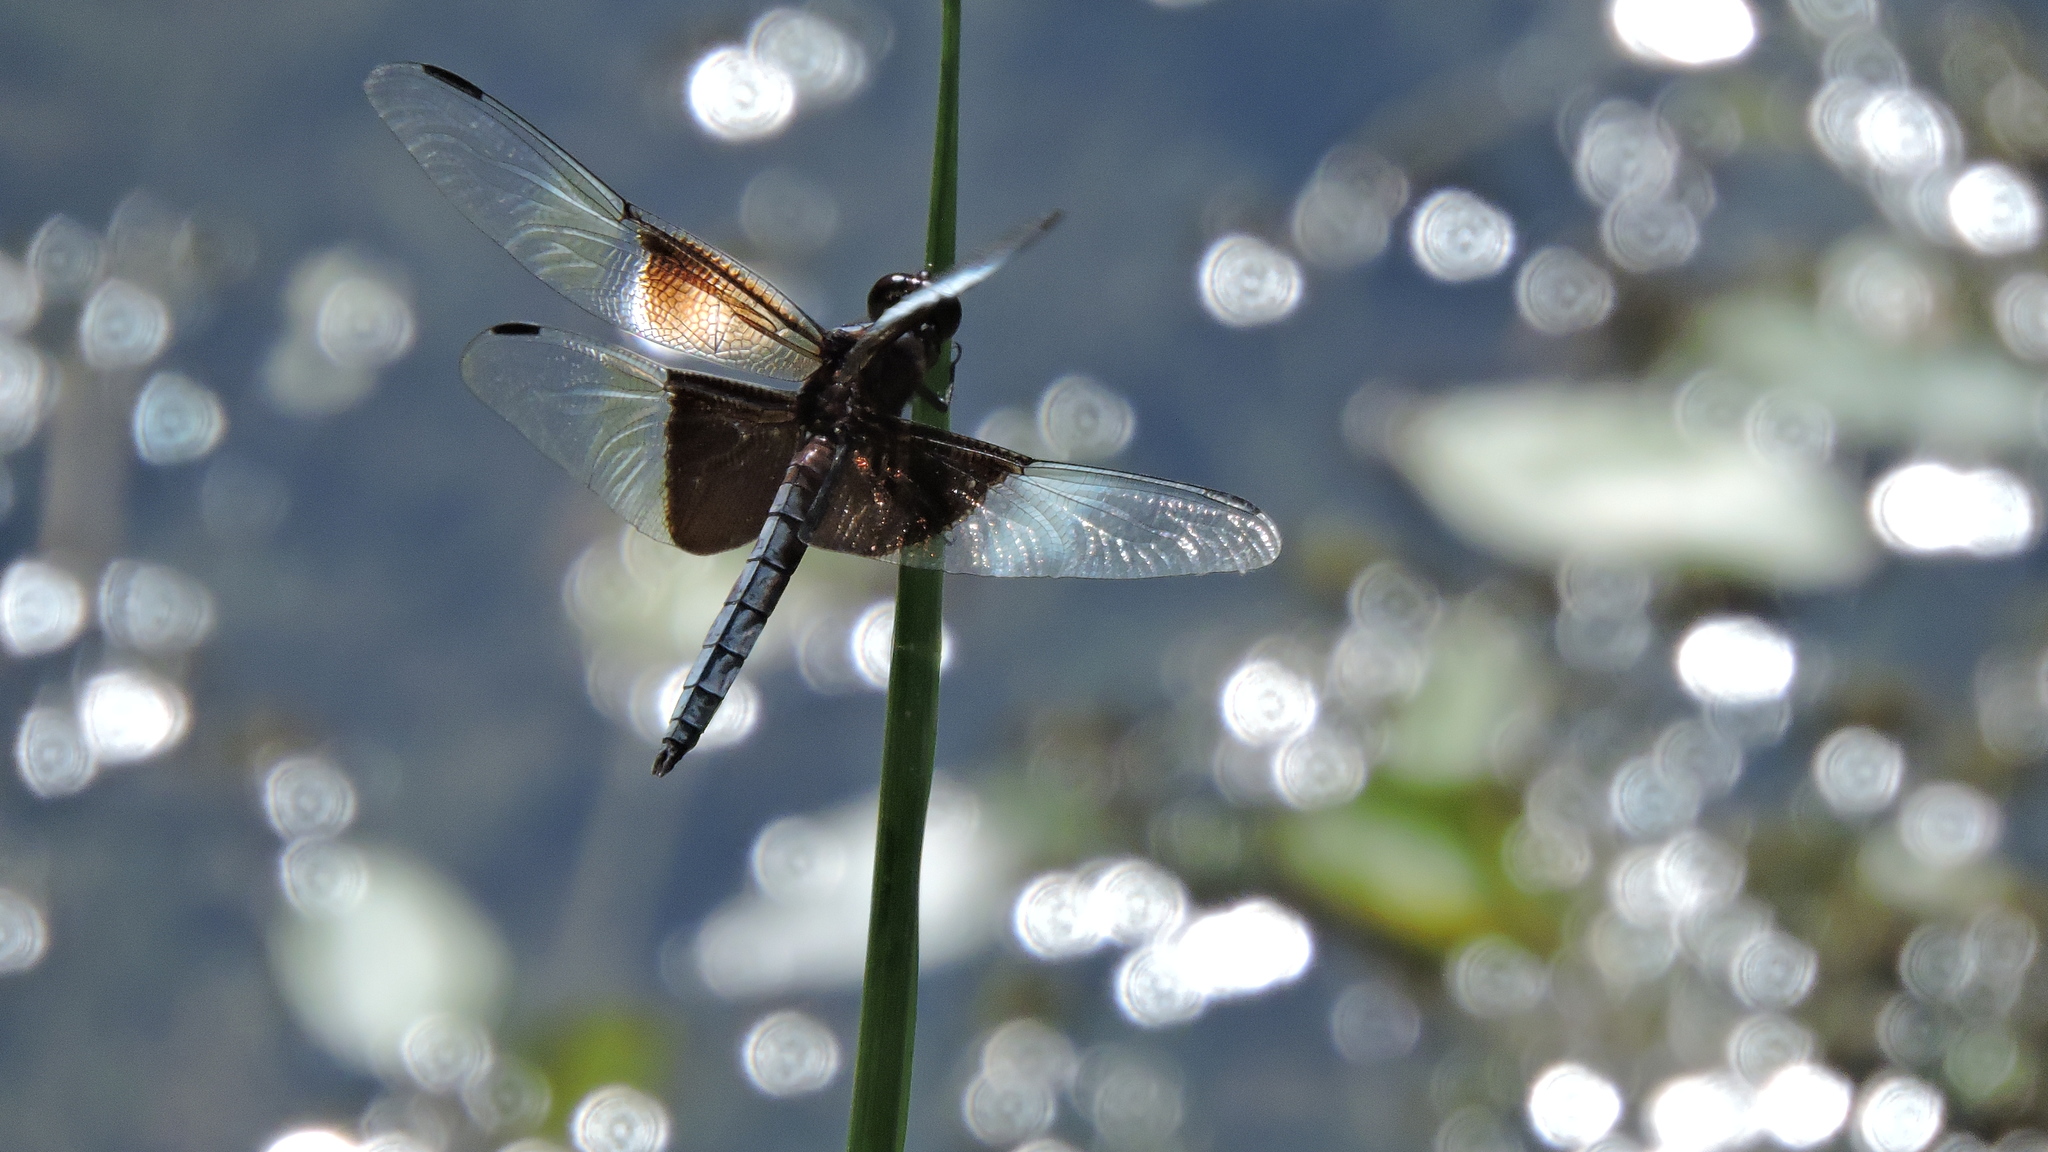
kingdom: Animalia
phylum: Arthropoda
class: Insecta
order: Odonata
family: Libellulidae
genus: Libellula
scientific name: Libellula luctuosa
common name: Widow skimmer
